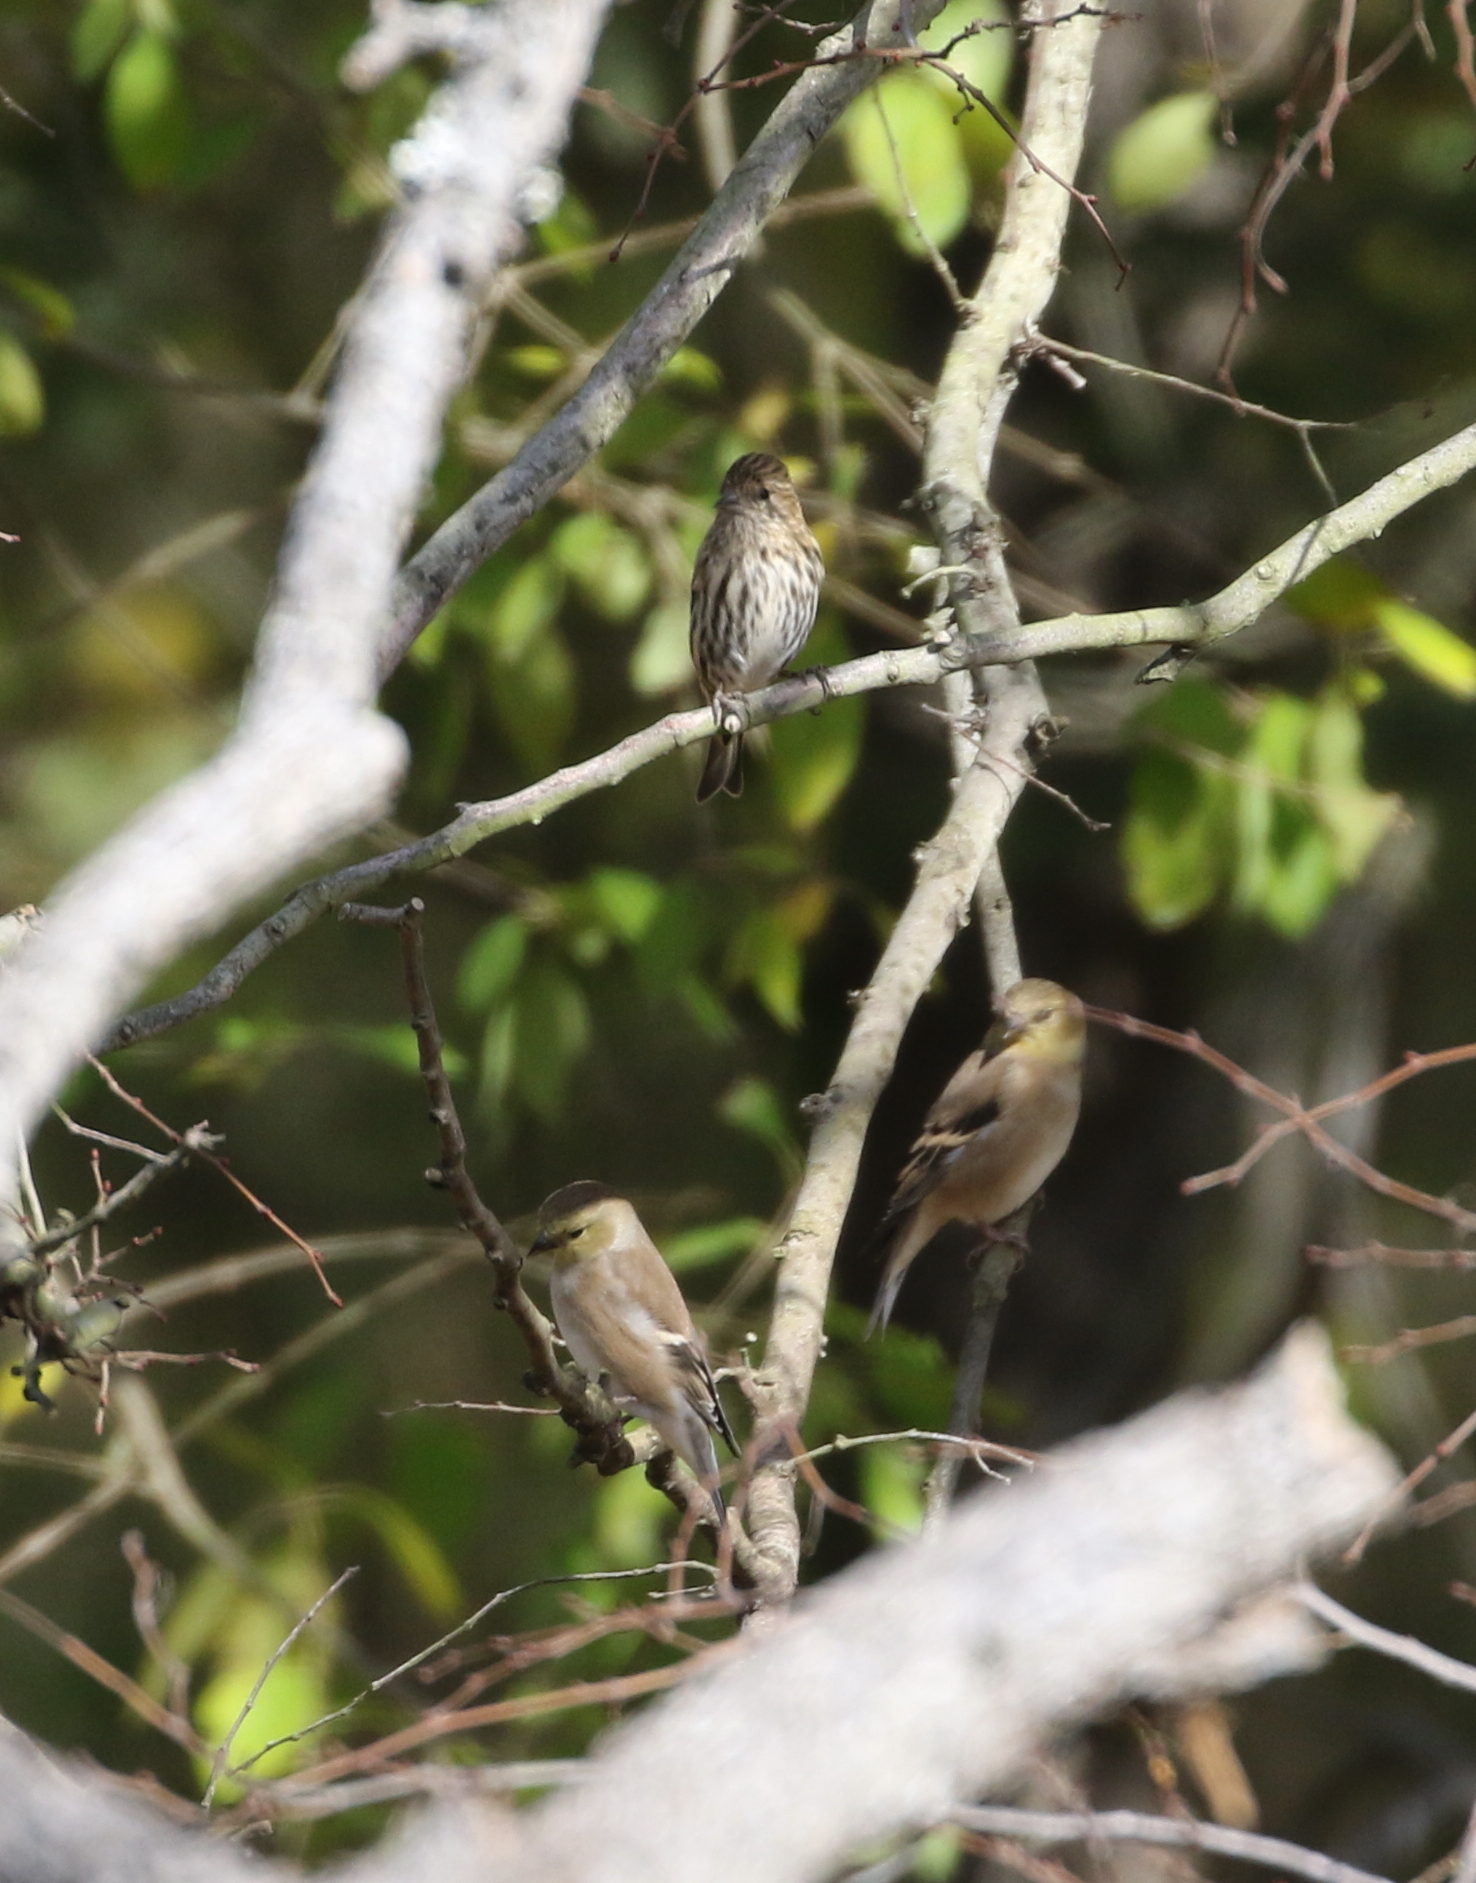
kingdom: Animalia
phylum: Chordata
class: Aves
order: Passeriformes
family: Fringillidae
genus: Spinus
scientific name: Spinus pinus
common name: Pine siskin
